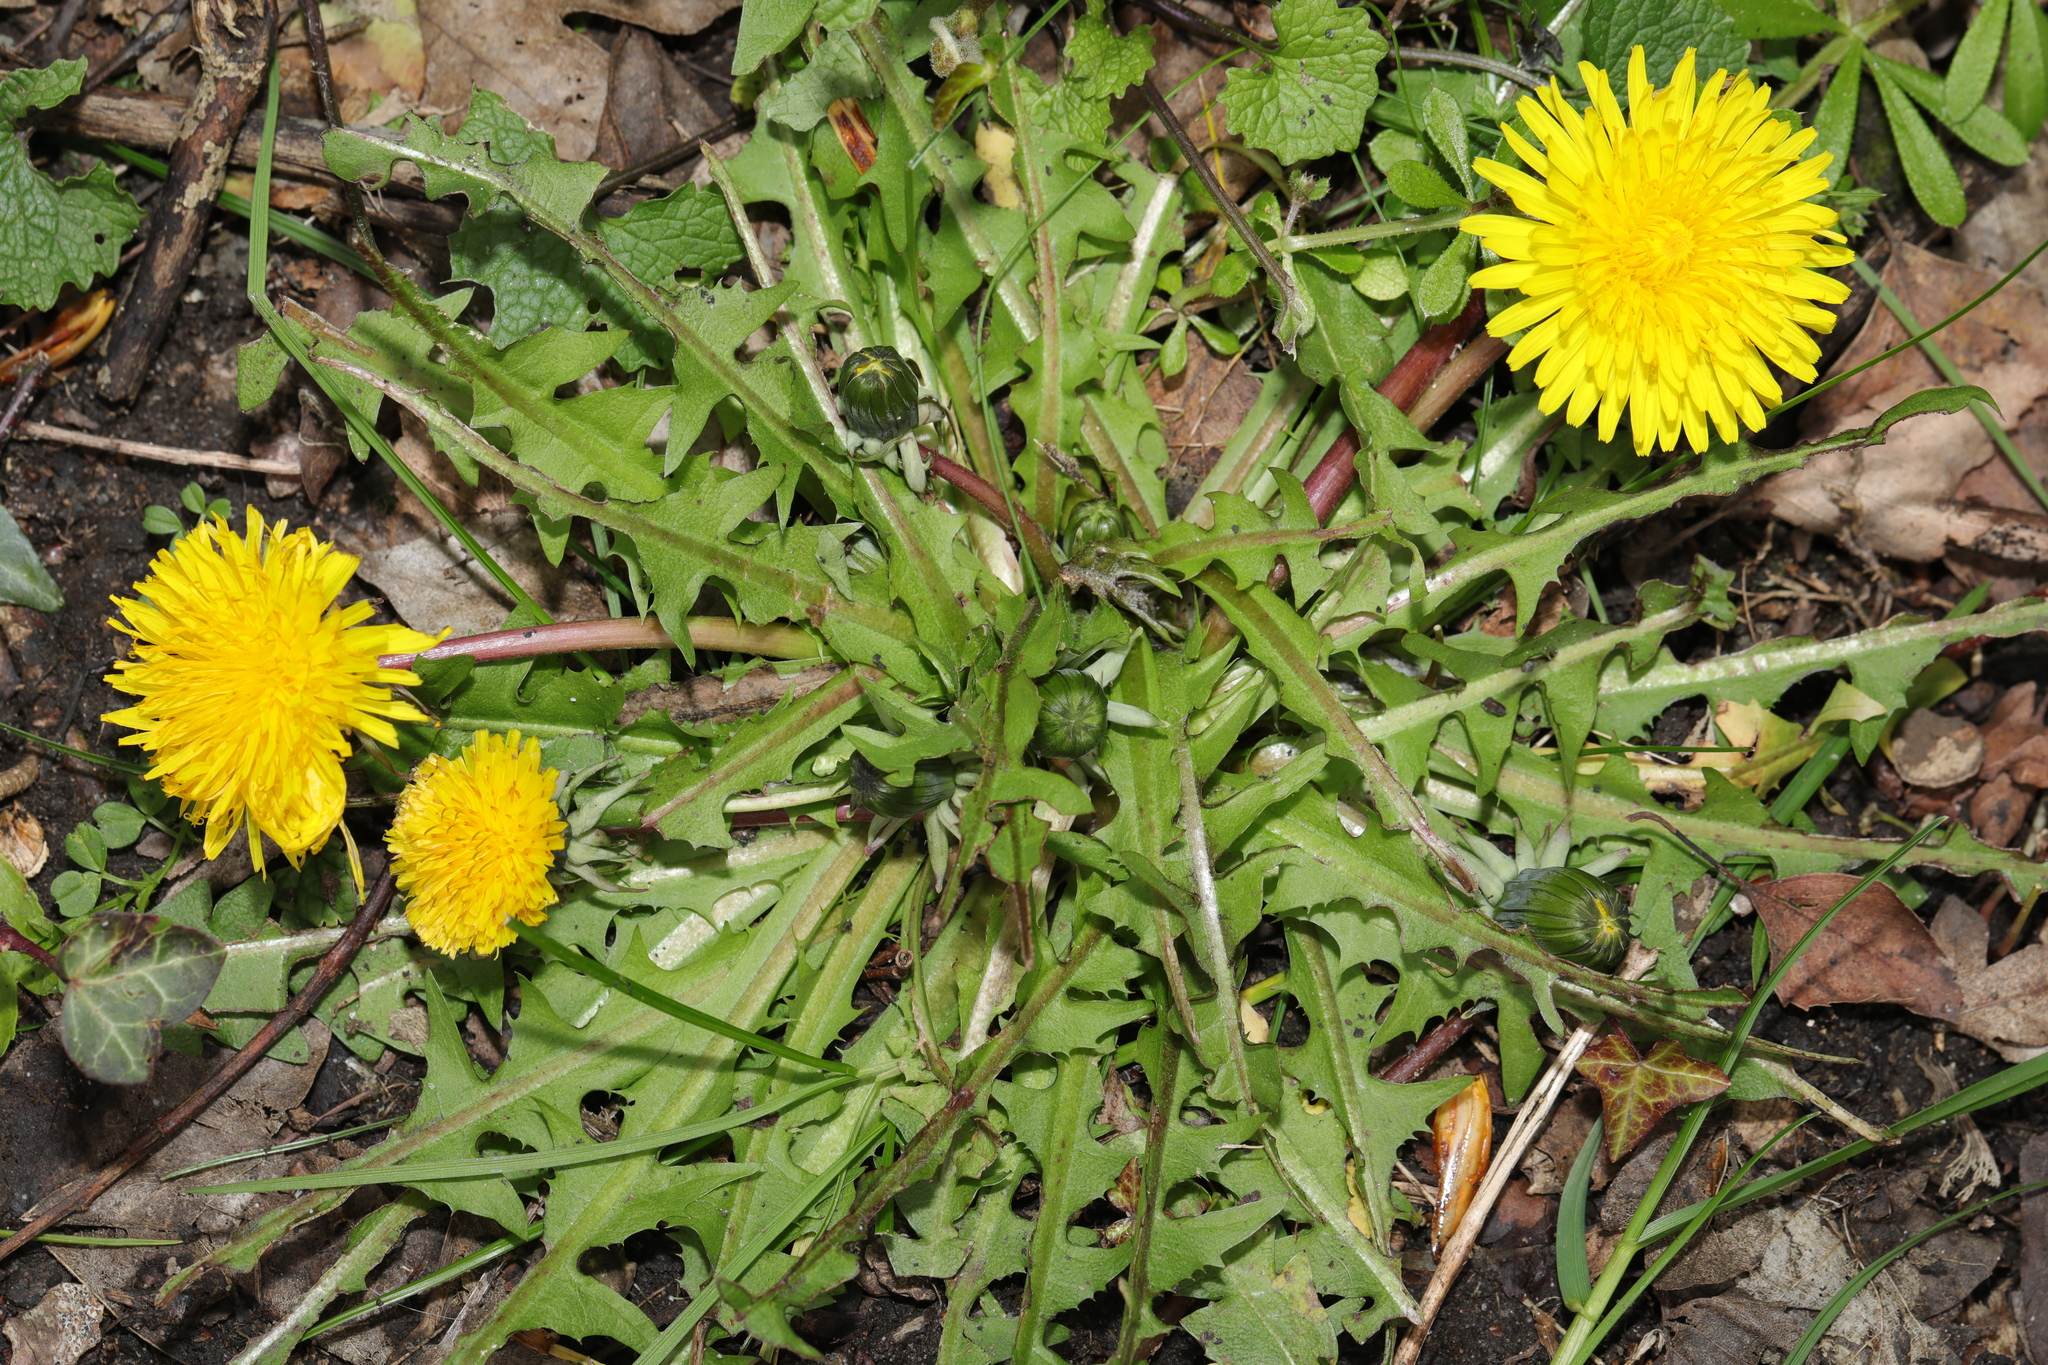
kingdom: Plantae
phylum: Tracheophyta
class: Magnoliopsida
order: Asterales
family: Asteraceae
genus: Taraxacum
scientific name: Taraxacum officinale
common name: Common dandelion
